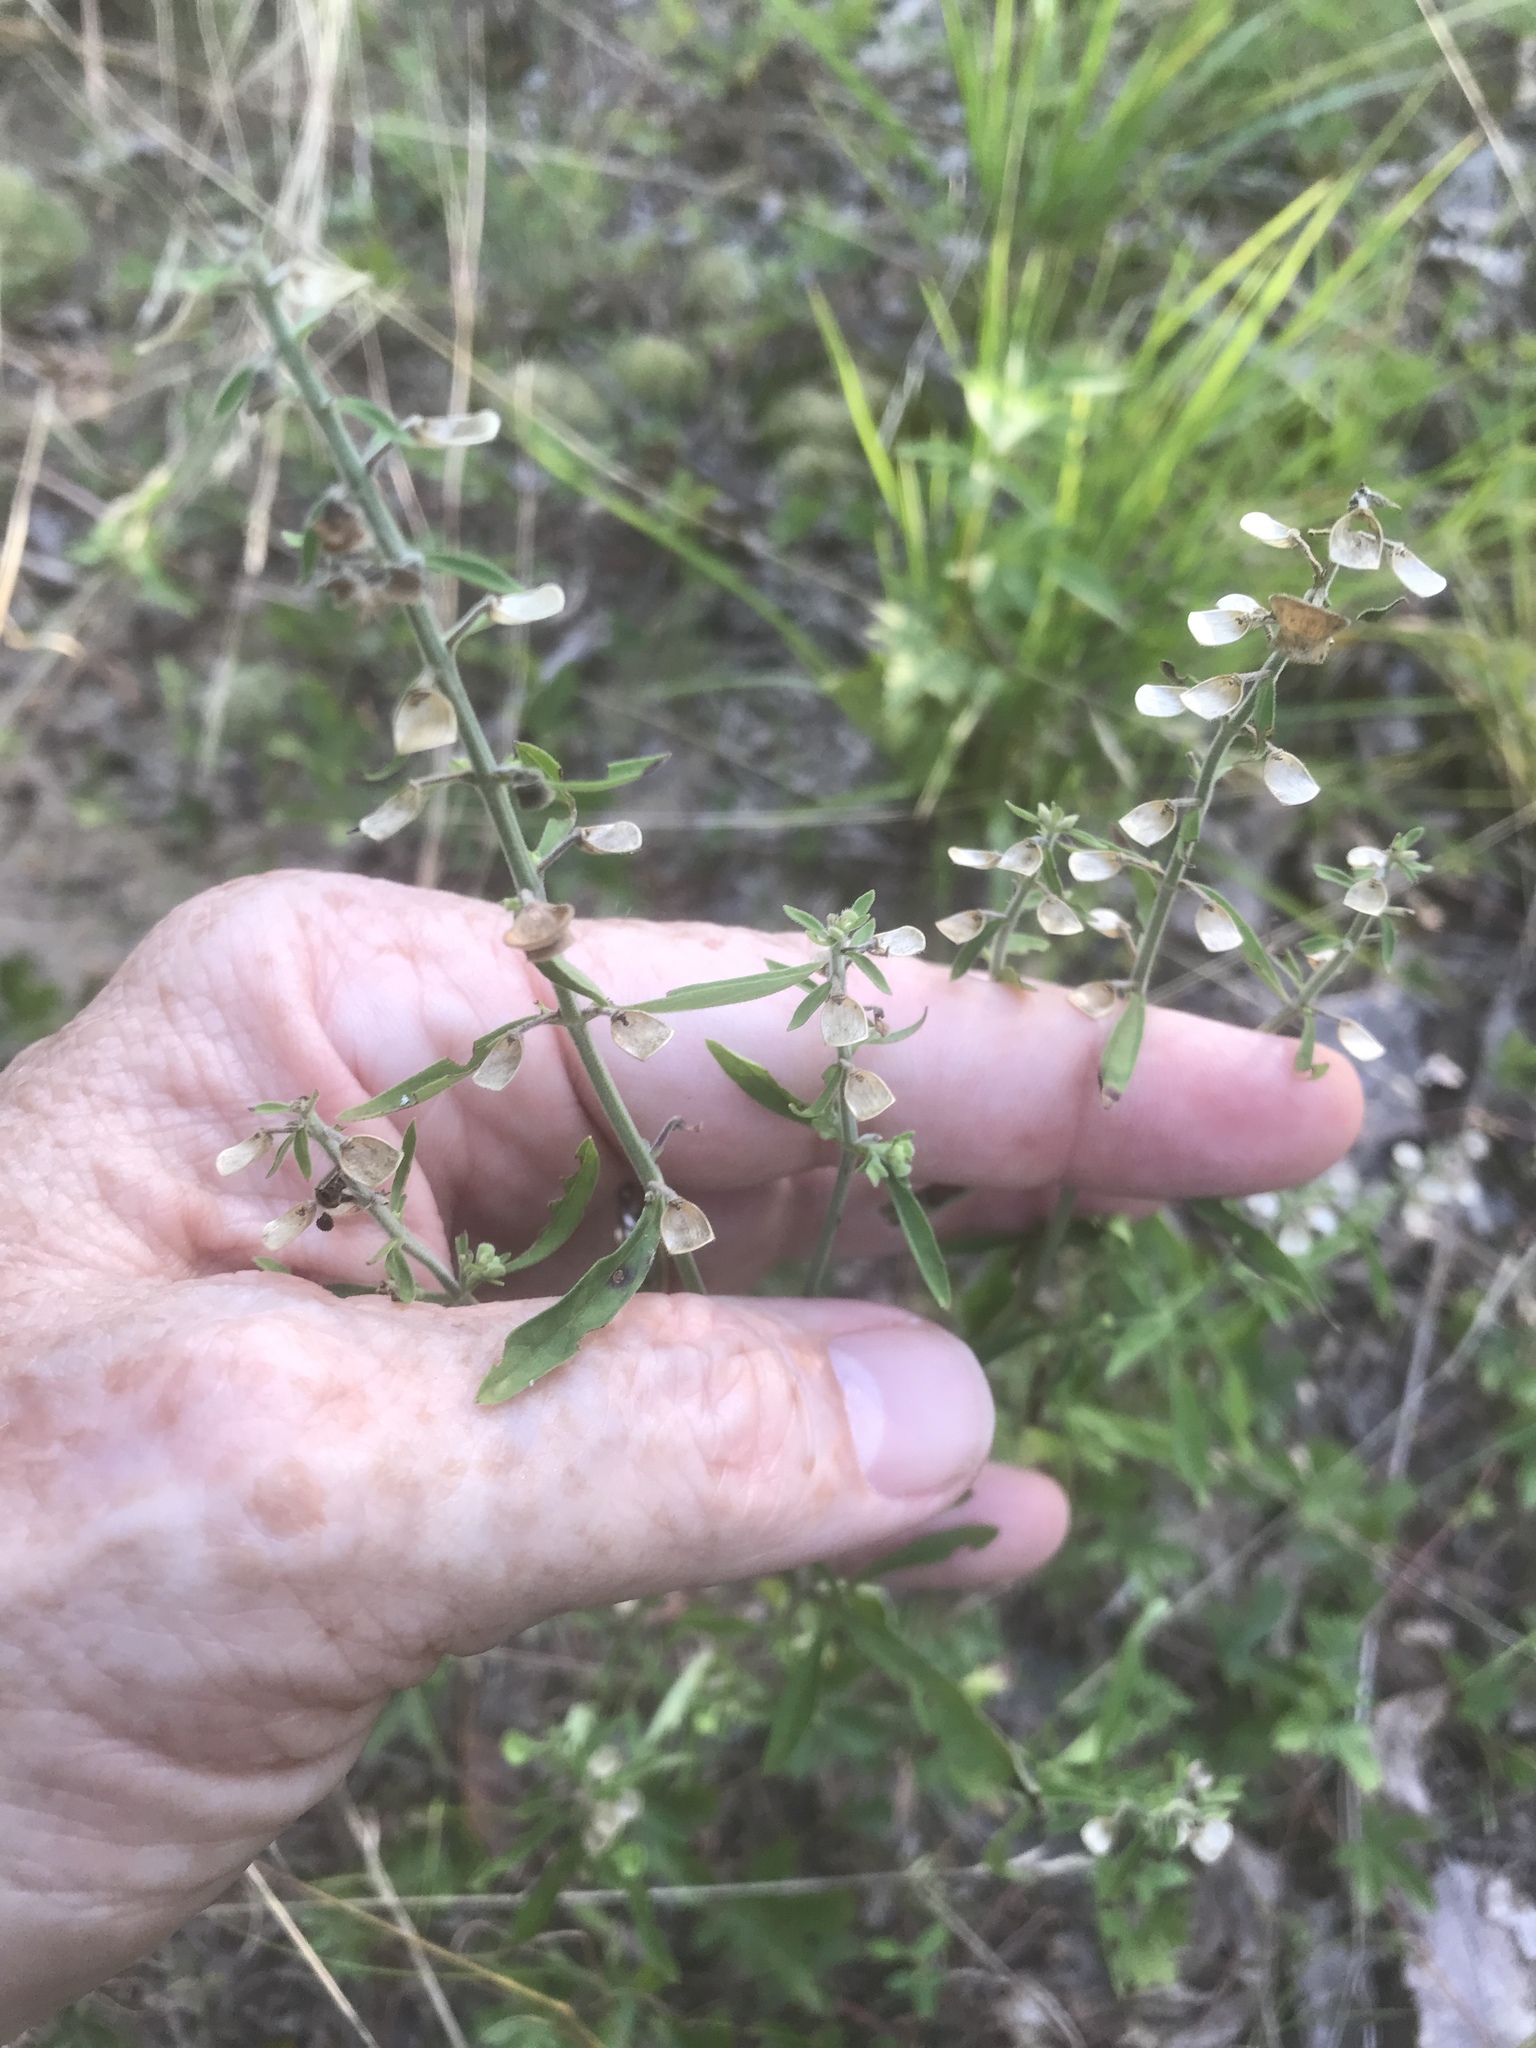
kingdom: Plantae
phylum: Tracheophyta
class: Magnoliopsida
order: Lamiales
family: Lamiaceae
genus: Scutellaria
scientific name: Scutellaria integrifolia
